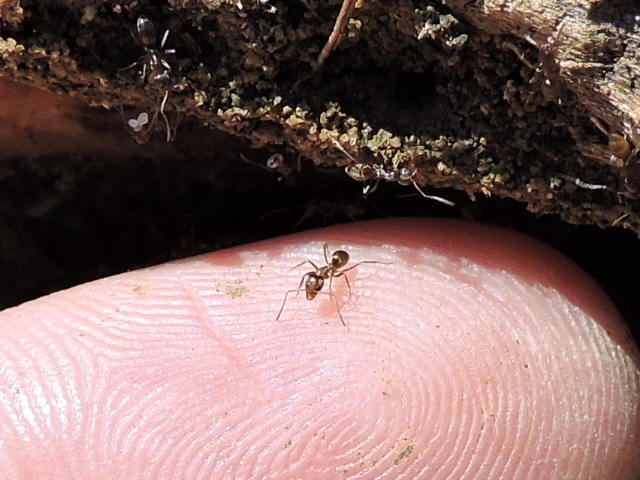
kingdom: Animalia
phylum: Arthropoda
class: Insecta
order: Hymenoptera
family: Formicidae
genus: Linepithema
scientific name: Linepithema humile
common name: Argentine ant
